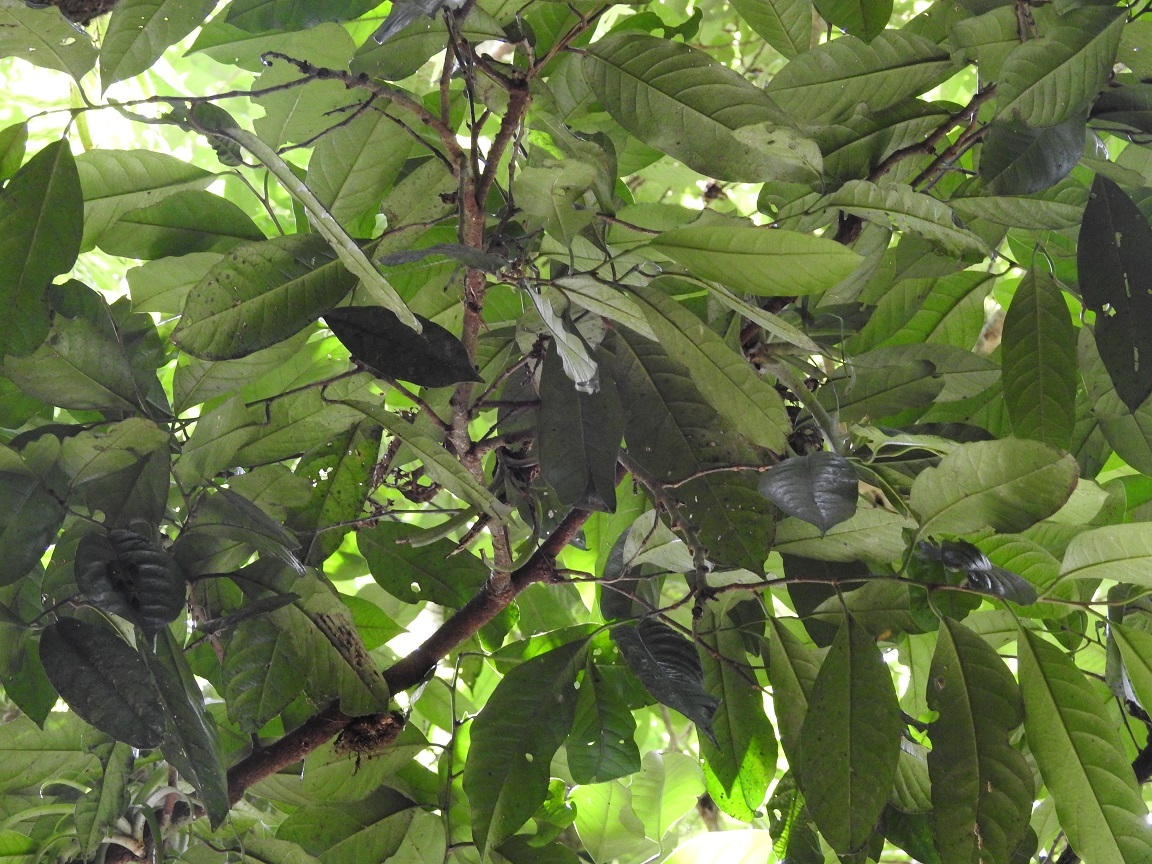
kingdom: Plantae
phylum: Tracheophyta
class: Magnoliopsida
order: Metteniusales
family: Metteniusaceae
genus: Oecopetalum
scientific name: Oecopetalum mexicanum
